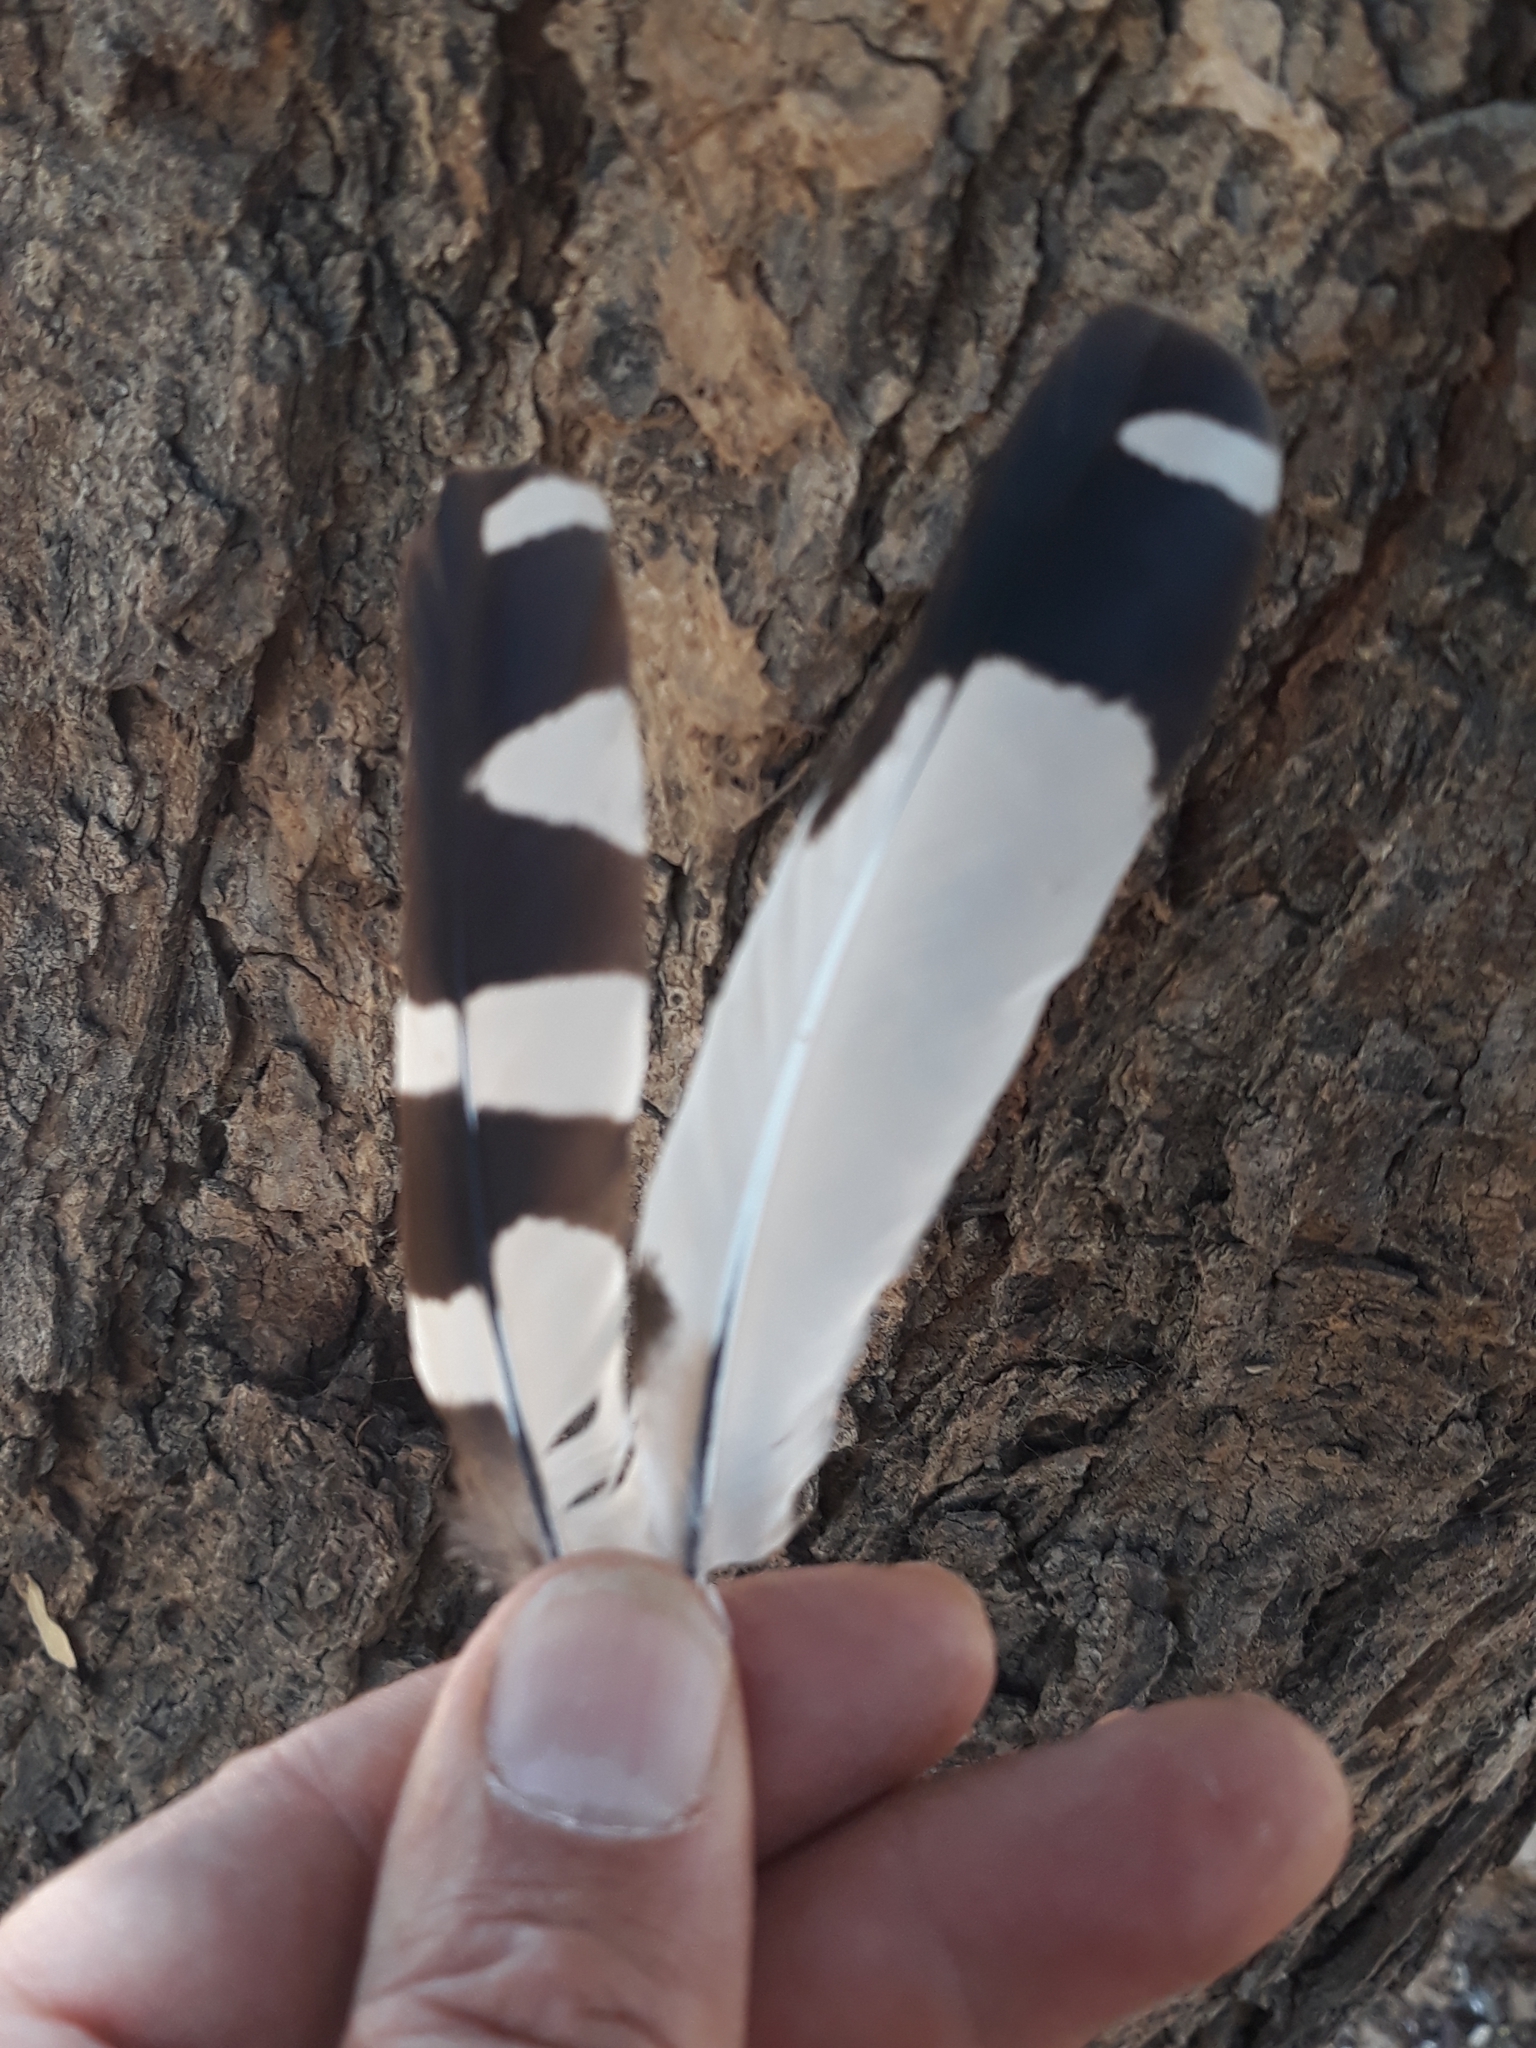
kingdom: Animalia
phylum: Chordata
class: Aves
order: Bucerotiformes
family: Upupidae
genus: Upupa
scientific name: Upupa africana
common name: African hoopoe
